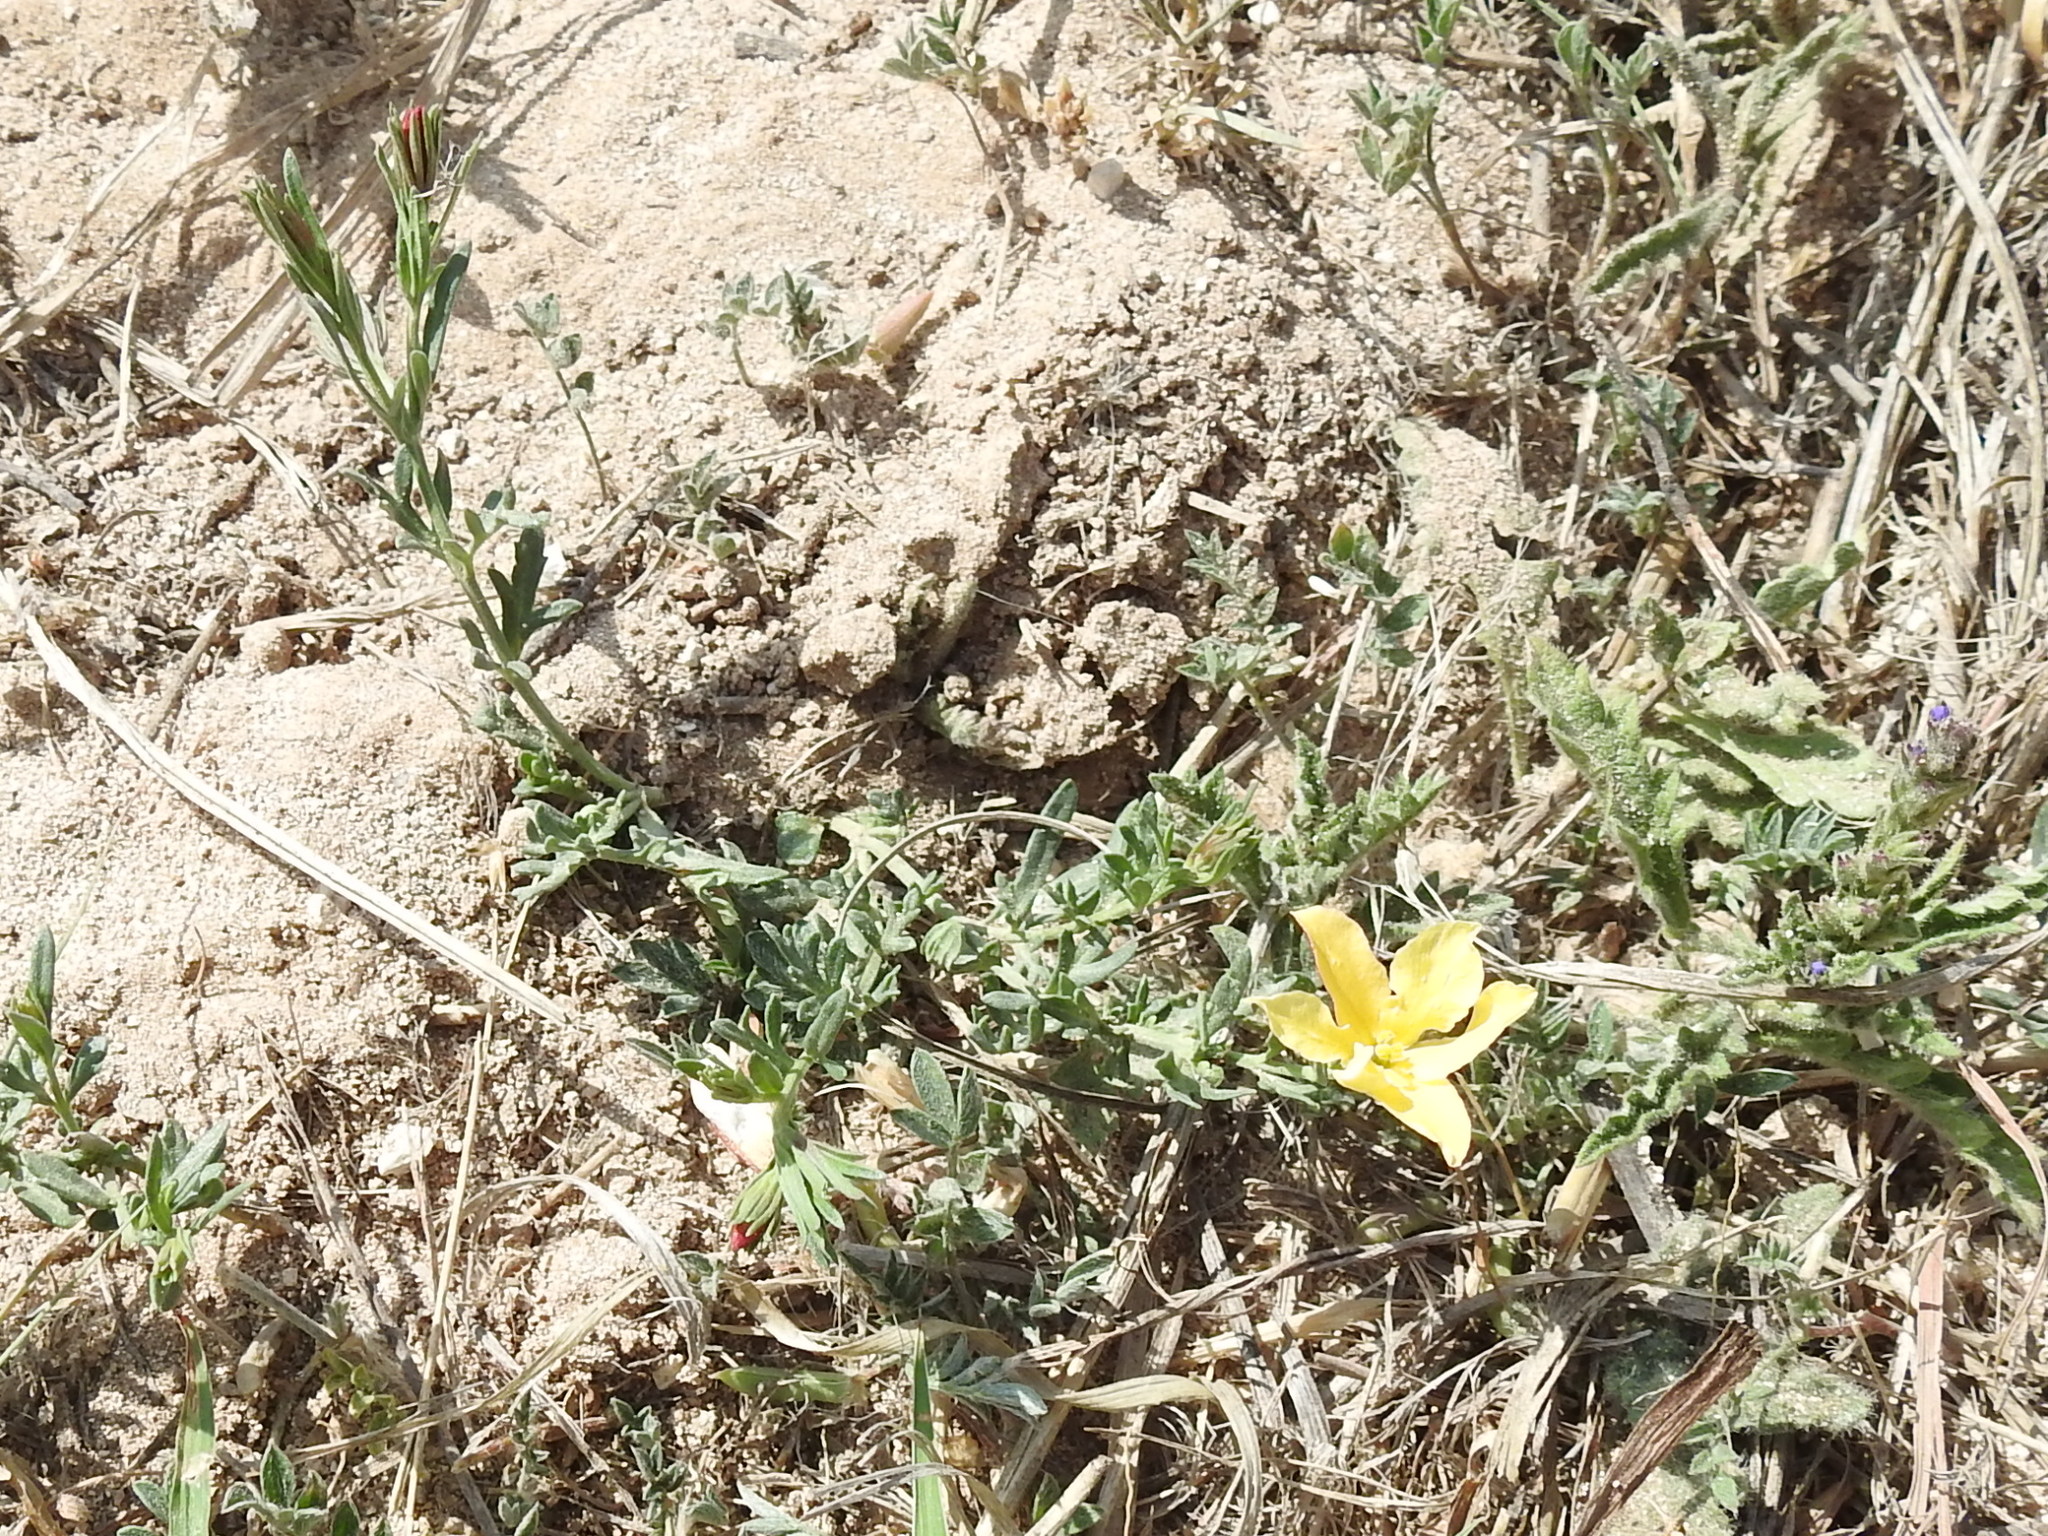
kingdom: Plantae
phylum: Tracheophyta
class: Magnoliopsida
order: Lamiales
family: Oleaceae
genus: Menodora
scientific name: Menodora heterophylla
